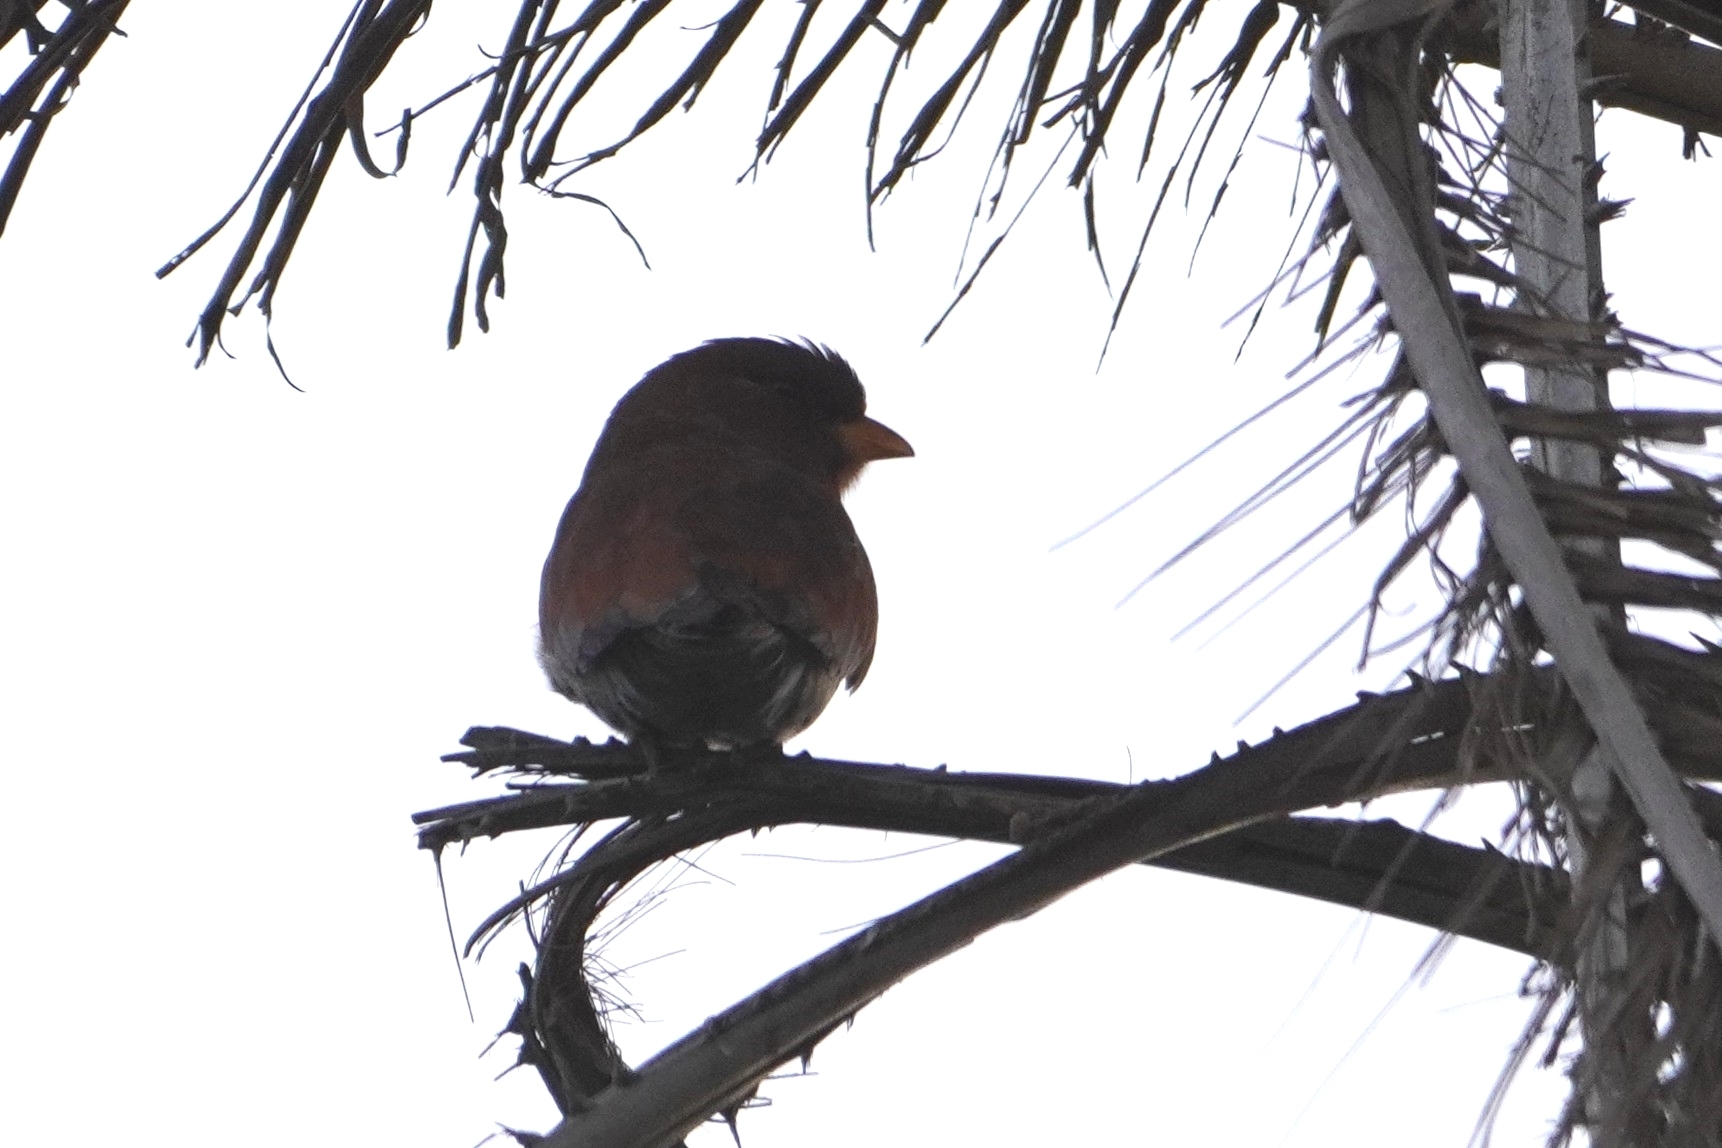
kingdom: Animalia
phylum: Chordata
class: Aves
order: Coraciiformes
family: Coraciidae
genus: Eurystomus
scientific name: Eurystomus glaucurus
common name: Broad-billed roller
